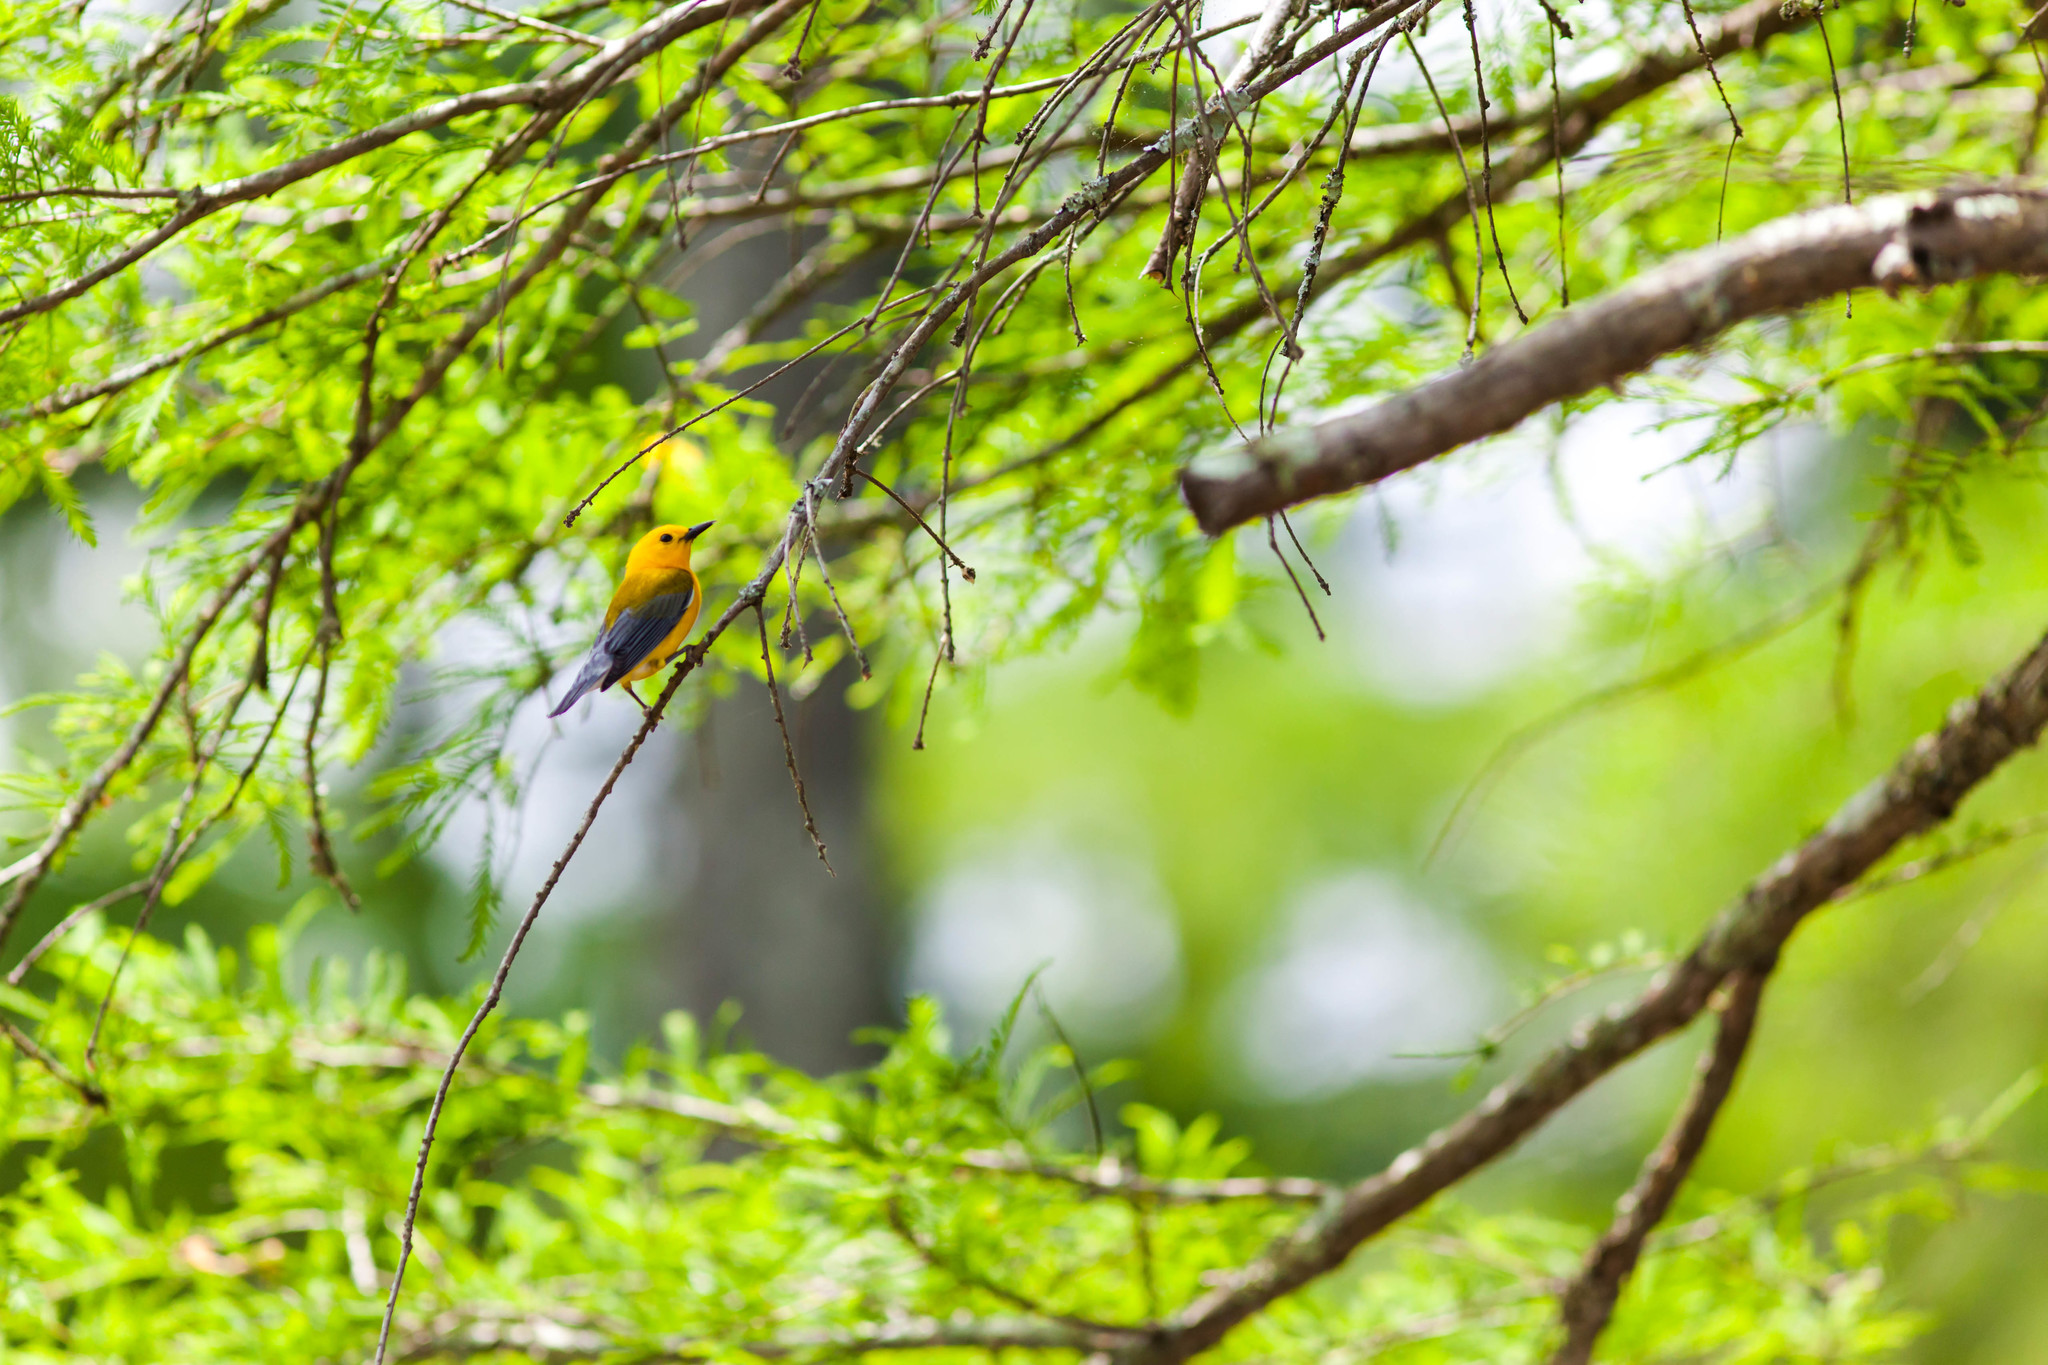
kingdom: Animalia
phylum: Chordata
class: Aves
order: Passeriformes
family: Parulidae
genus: Protonotaria
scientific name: Protonotaria citrea
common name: Prothonotary warbler
